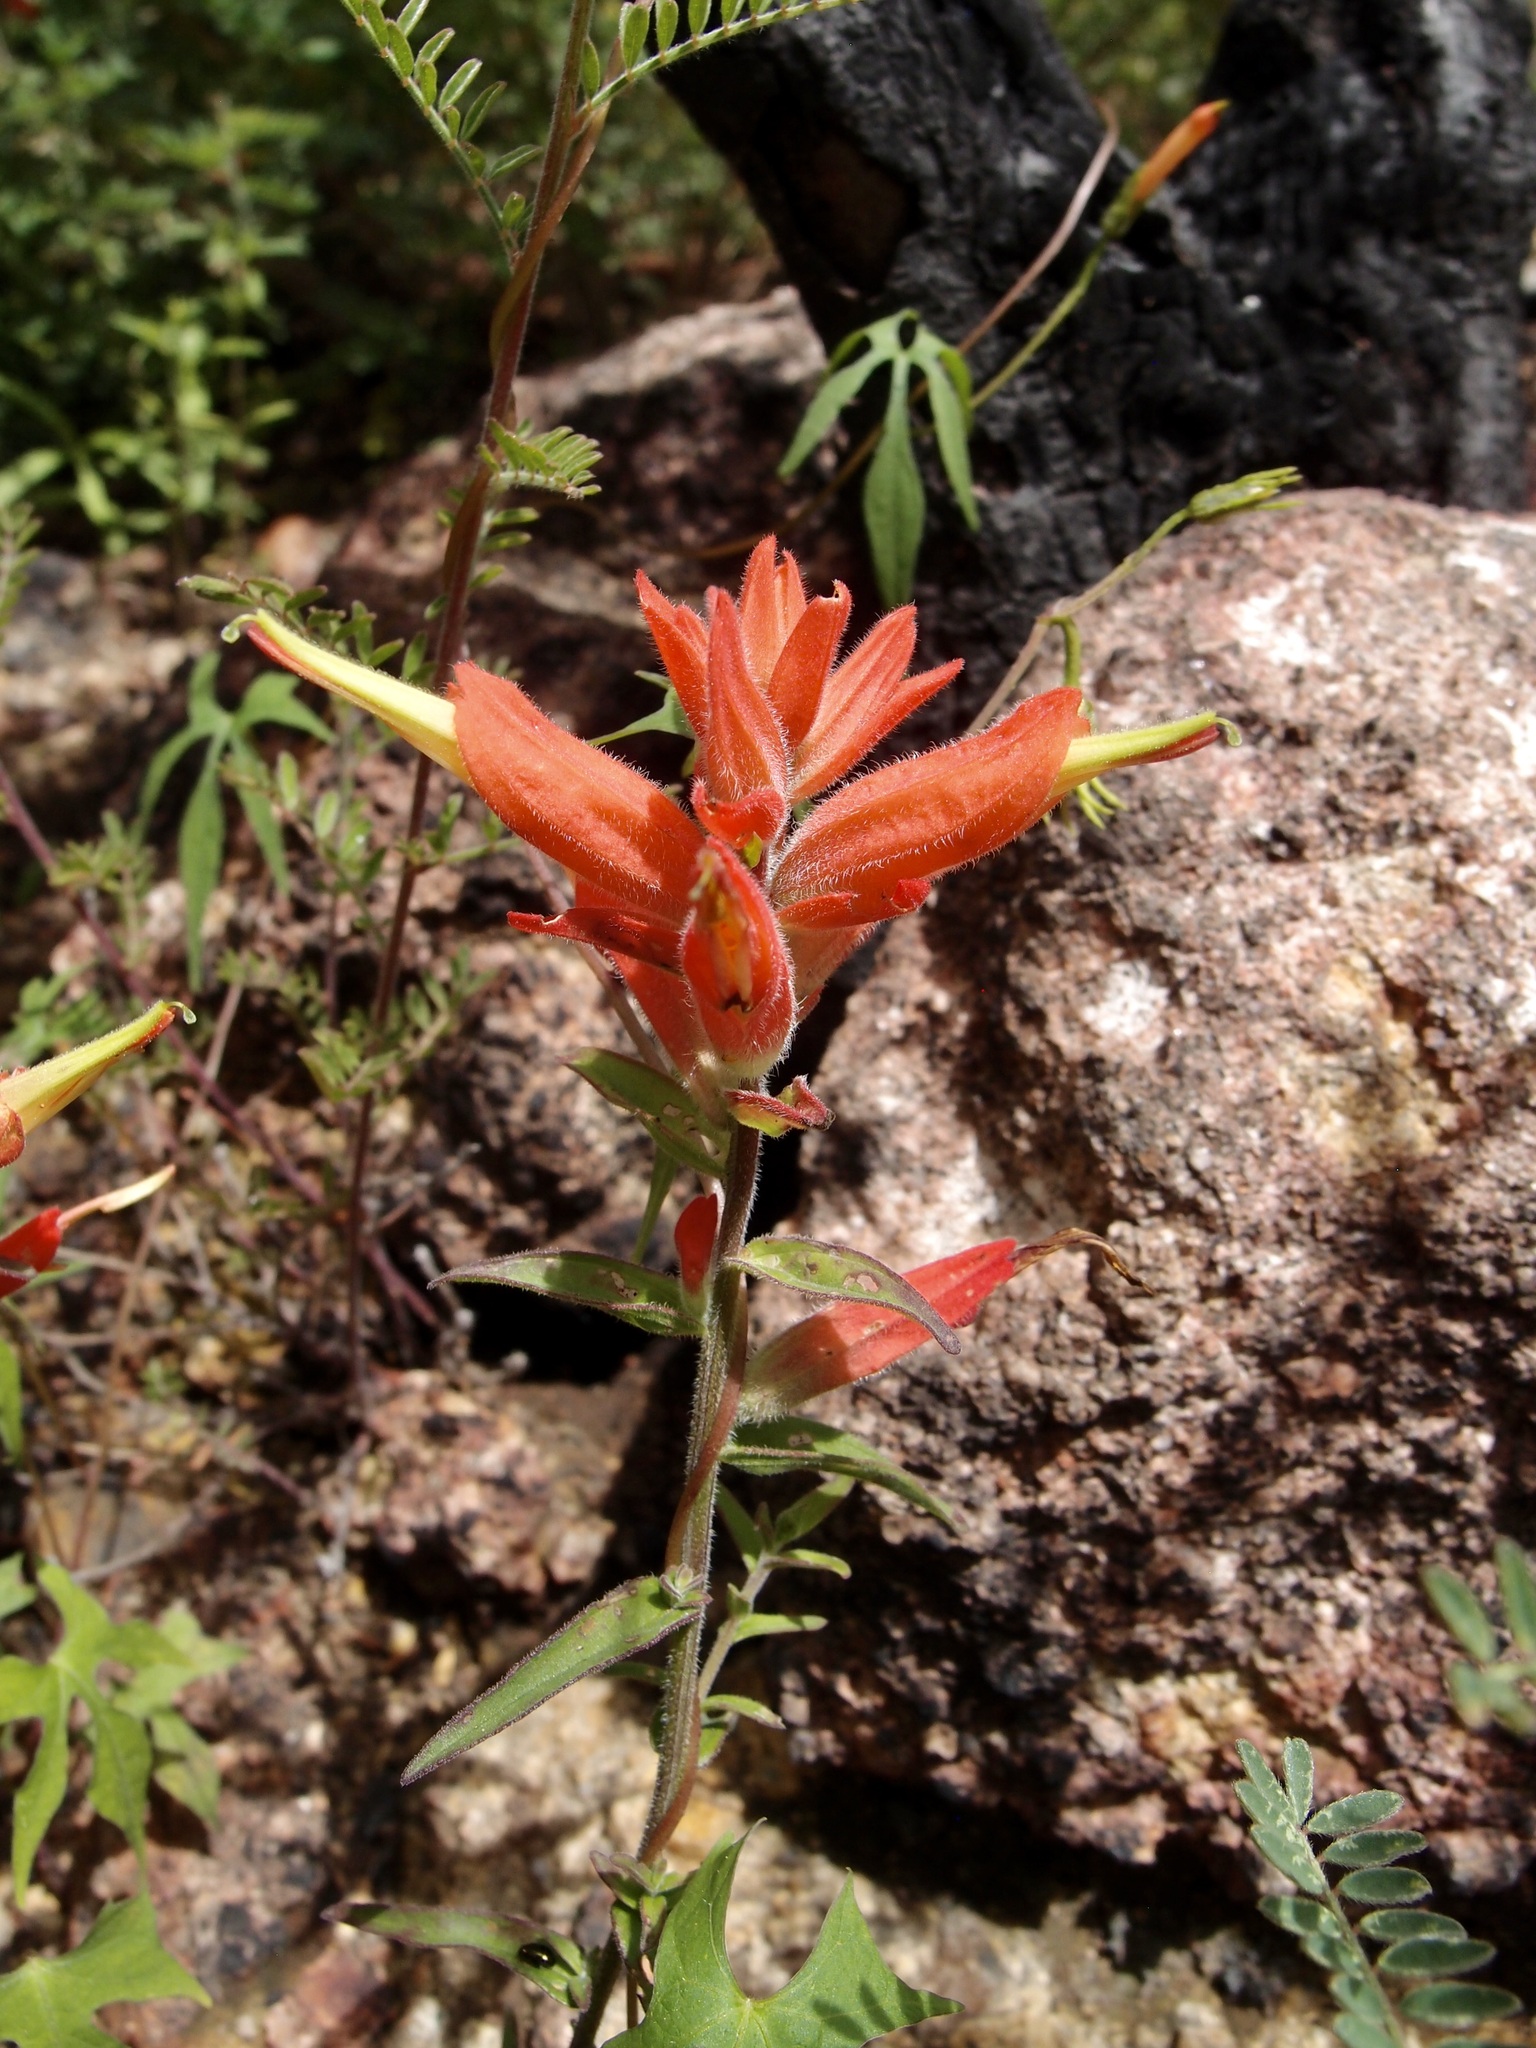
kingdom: Plantae
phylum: Tracheophyta
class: Magnoliopsida
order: Lamiales
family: Orobanchaceae
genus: Castilleja
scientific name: Castilleja tenuiflora
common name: Santa catalina indian paintbrush
